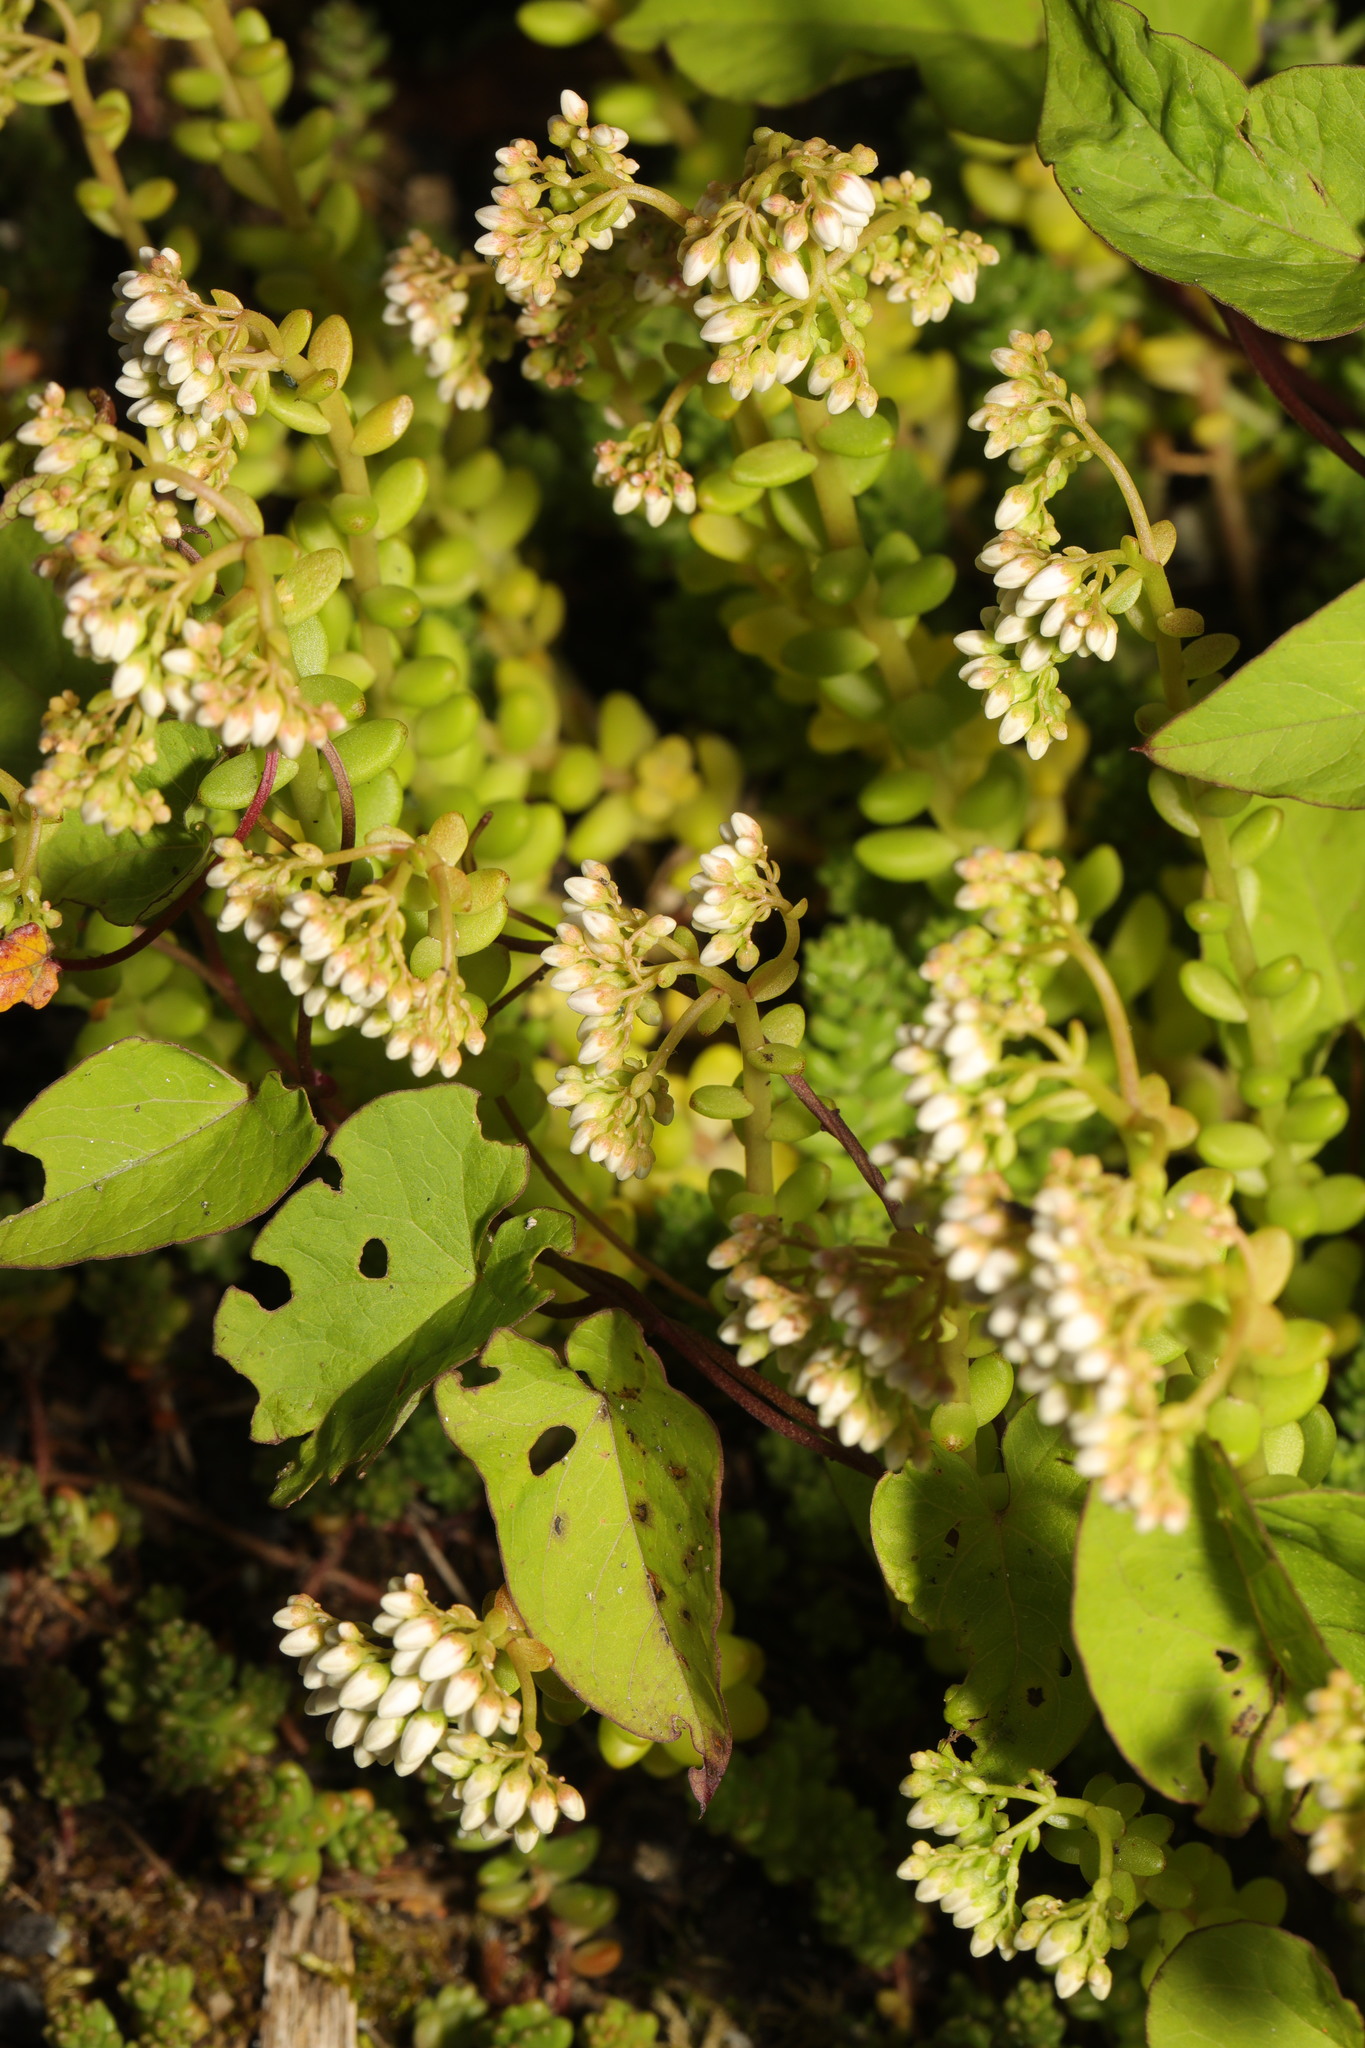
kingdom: Plantae
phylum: Tracheophyta
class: Magnoliopsida
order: Saxifragales
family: Crassulaceae
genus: Sedum
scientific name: Sedum album
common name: White stonecrop
